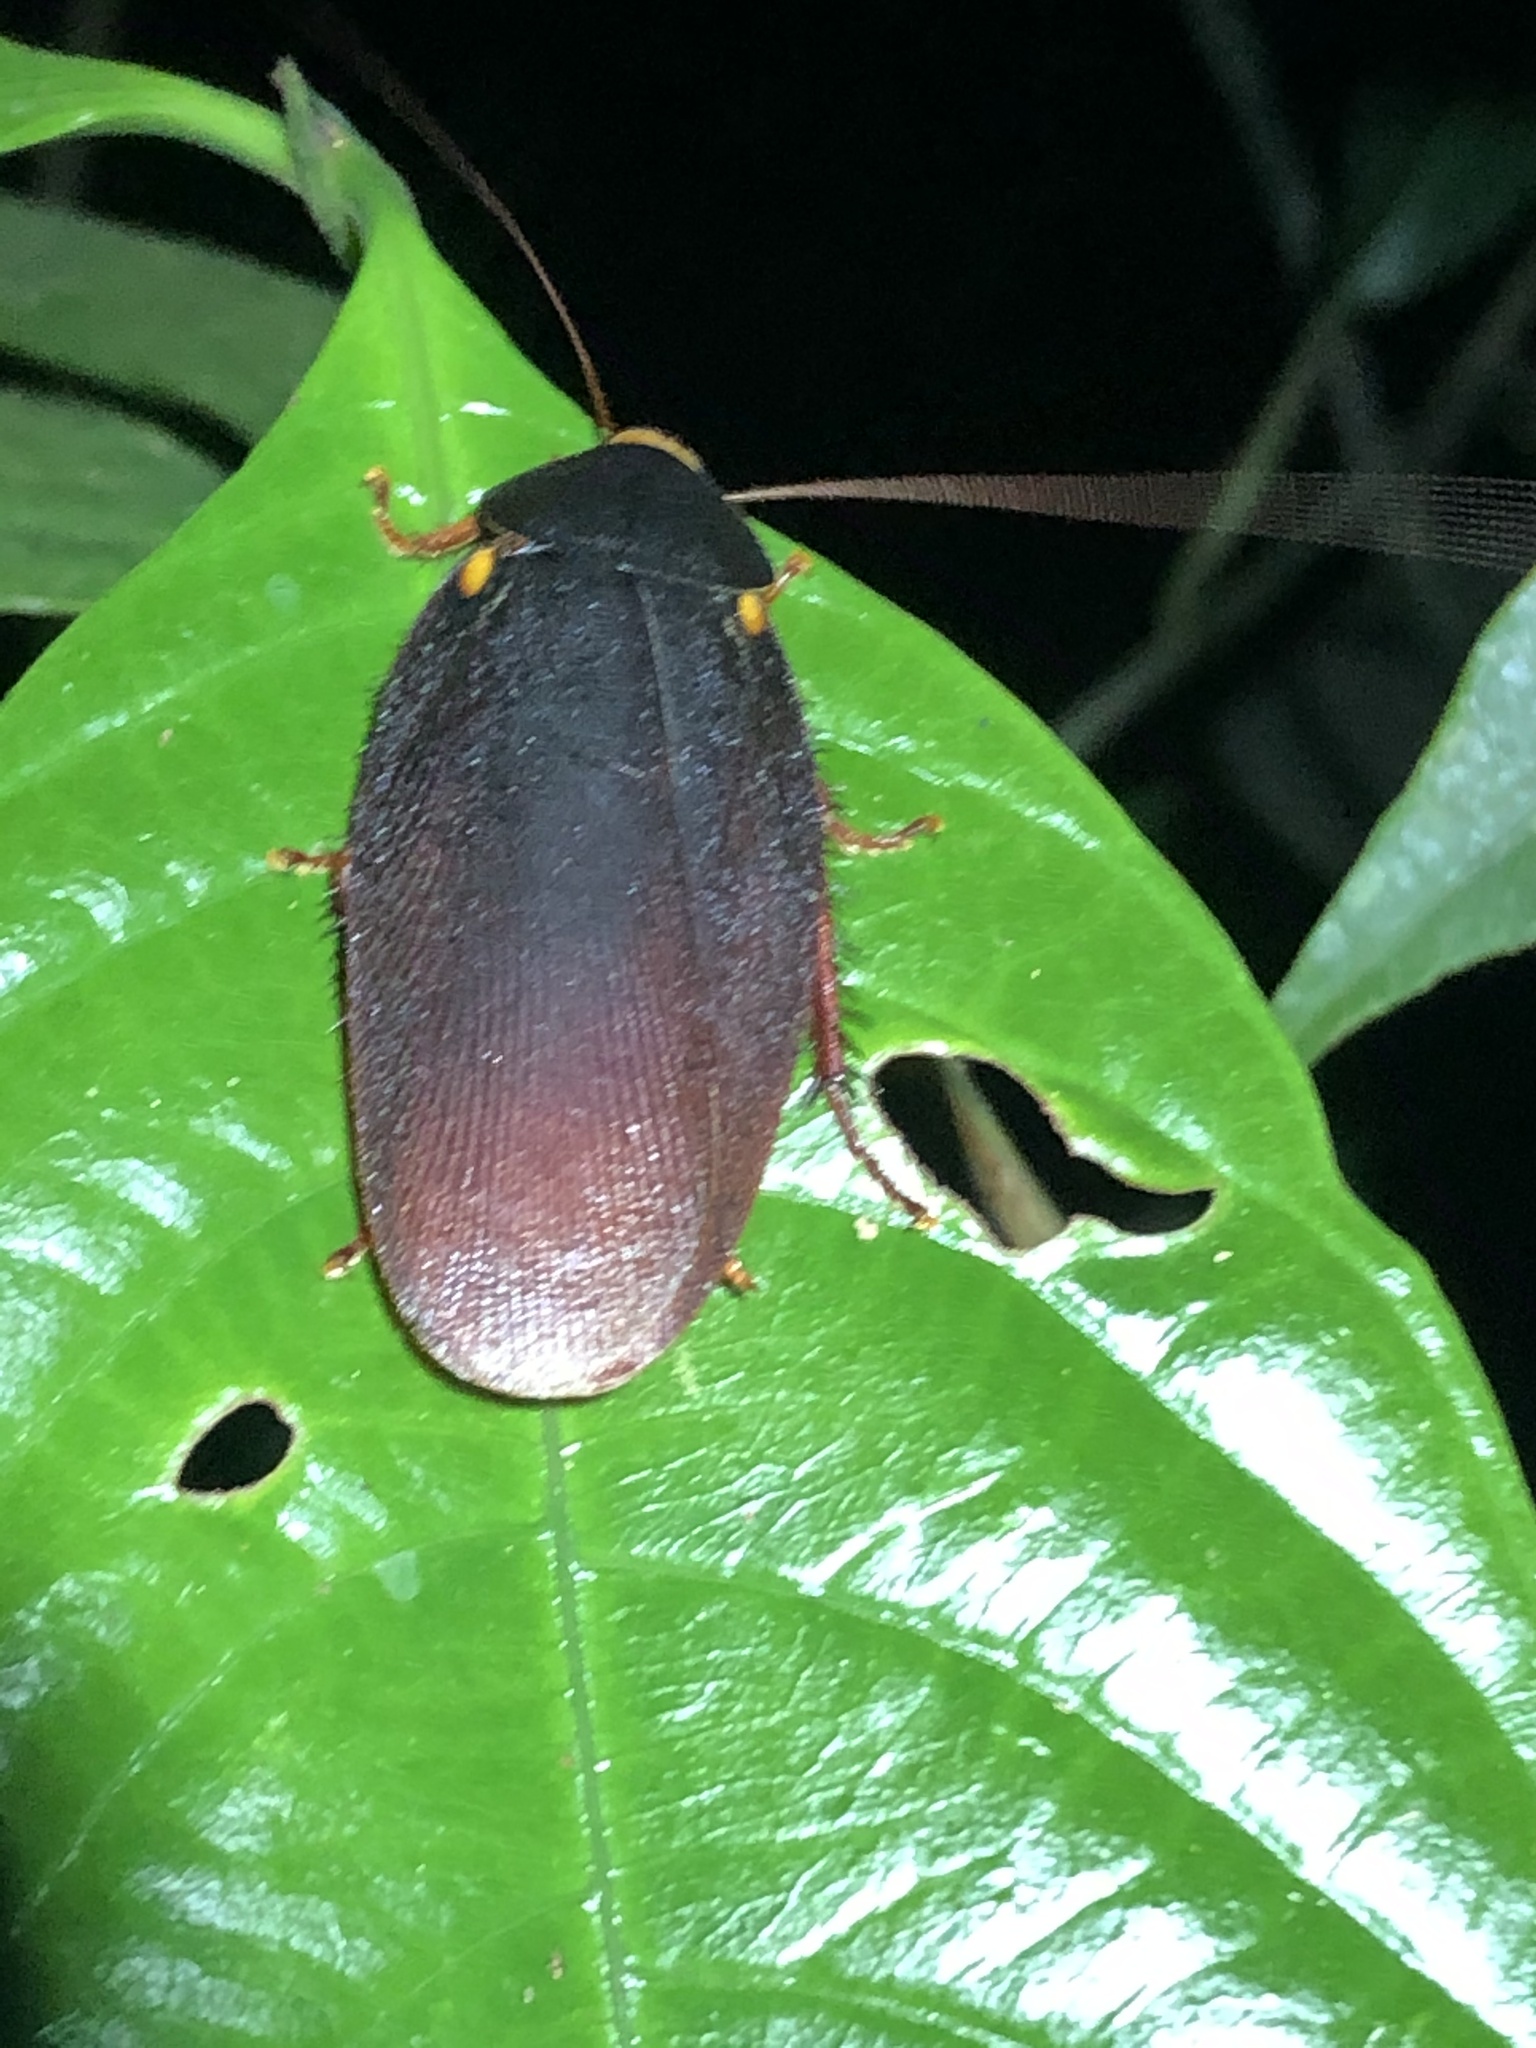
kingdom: Animalia
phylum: Arthropoda
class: Insecta
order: Blattodea
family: Ectobiidae
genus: Nyctibora
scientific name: Nyctibora humeralis
